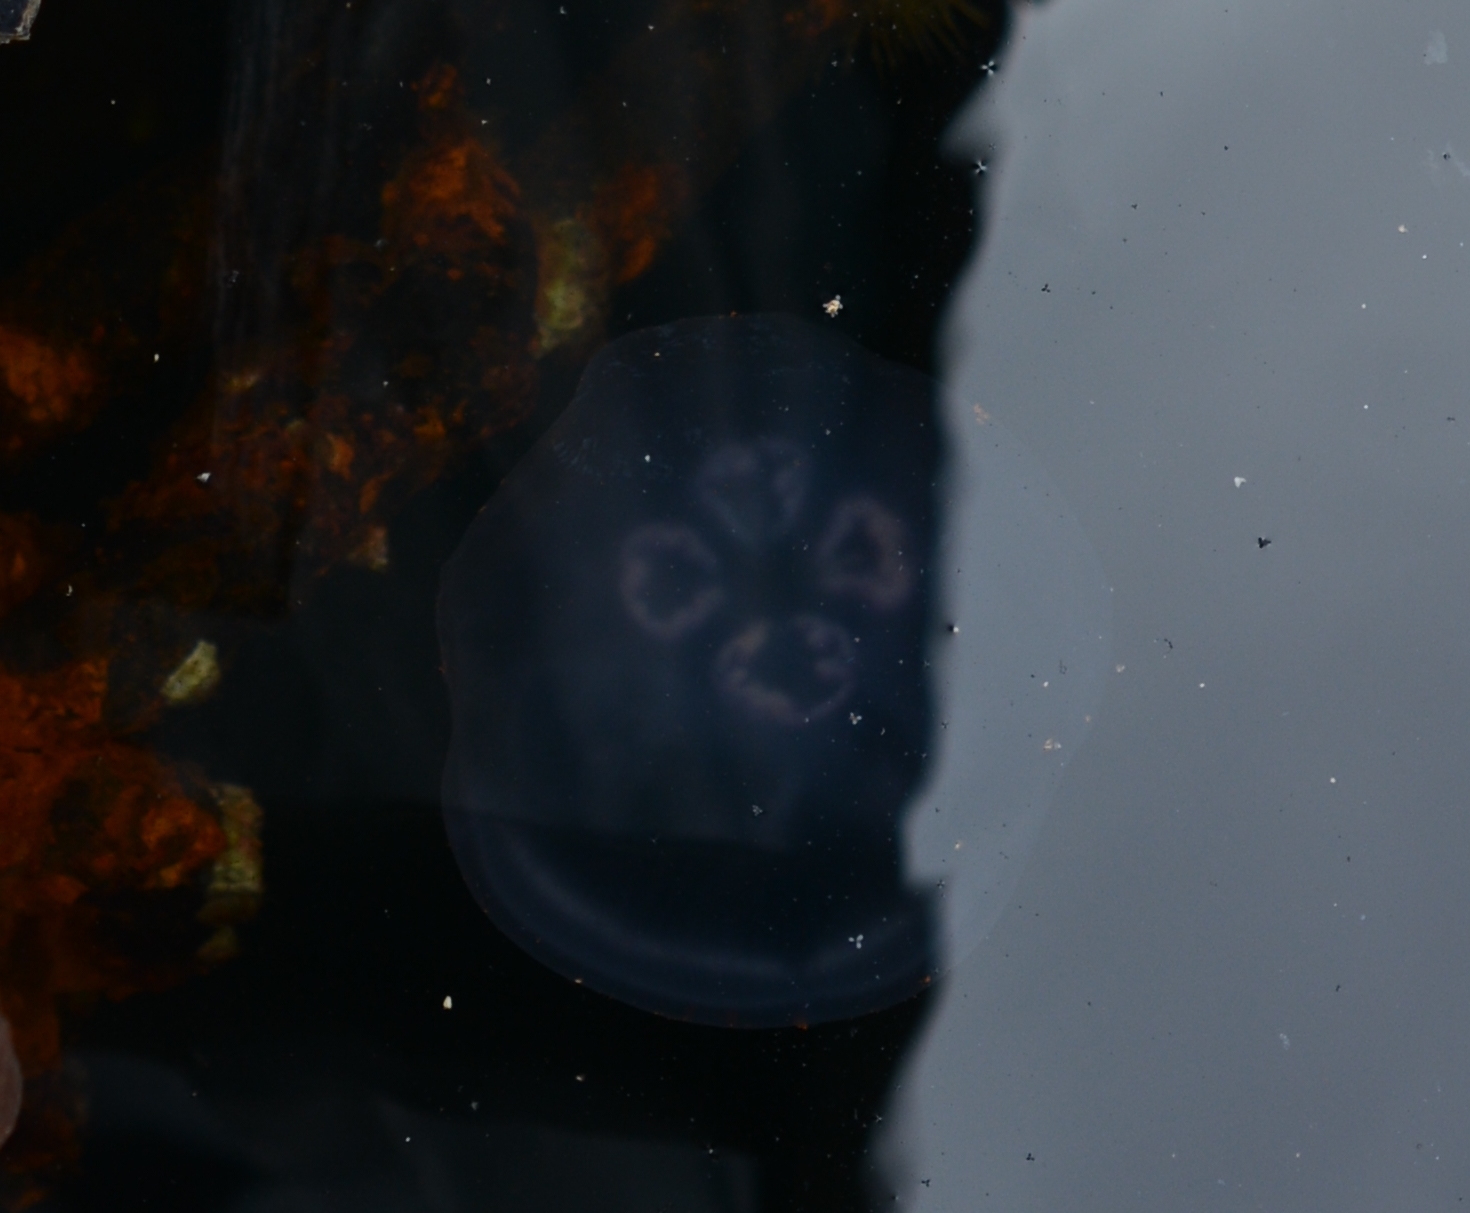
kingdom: Animalia
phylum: Cnidaria
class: Scyphozoa
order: Semaeostomeae
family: Ulmaridae
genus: Aurelia
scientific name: Aurelia labiata
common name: Pacific moon jelly
